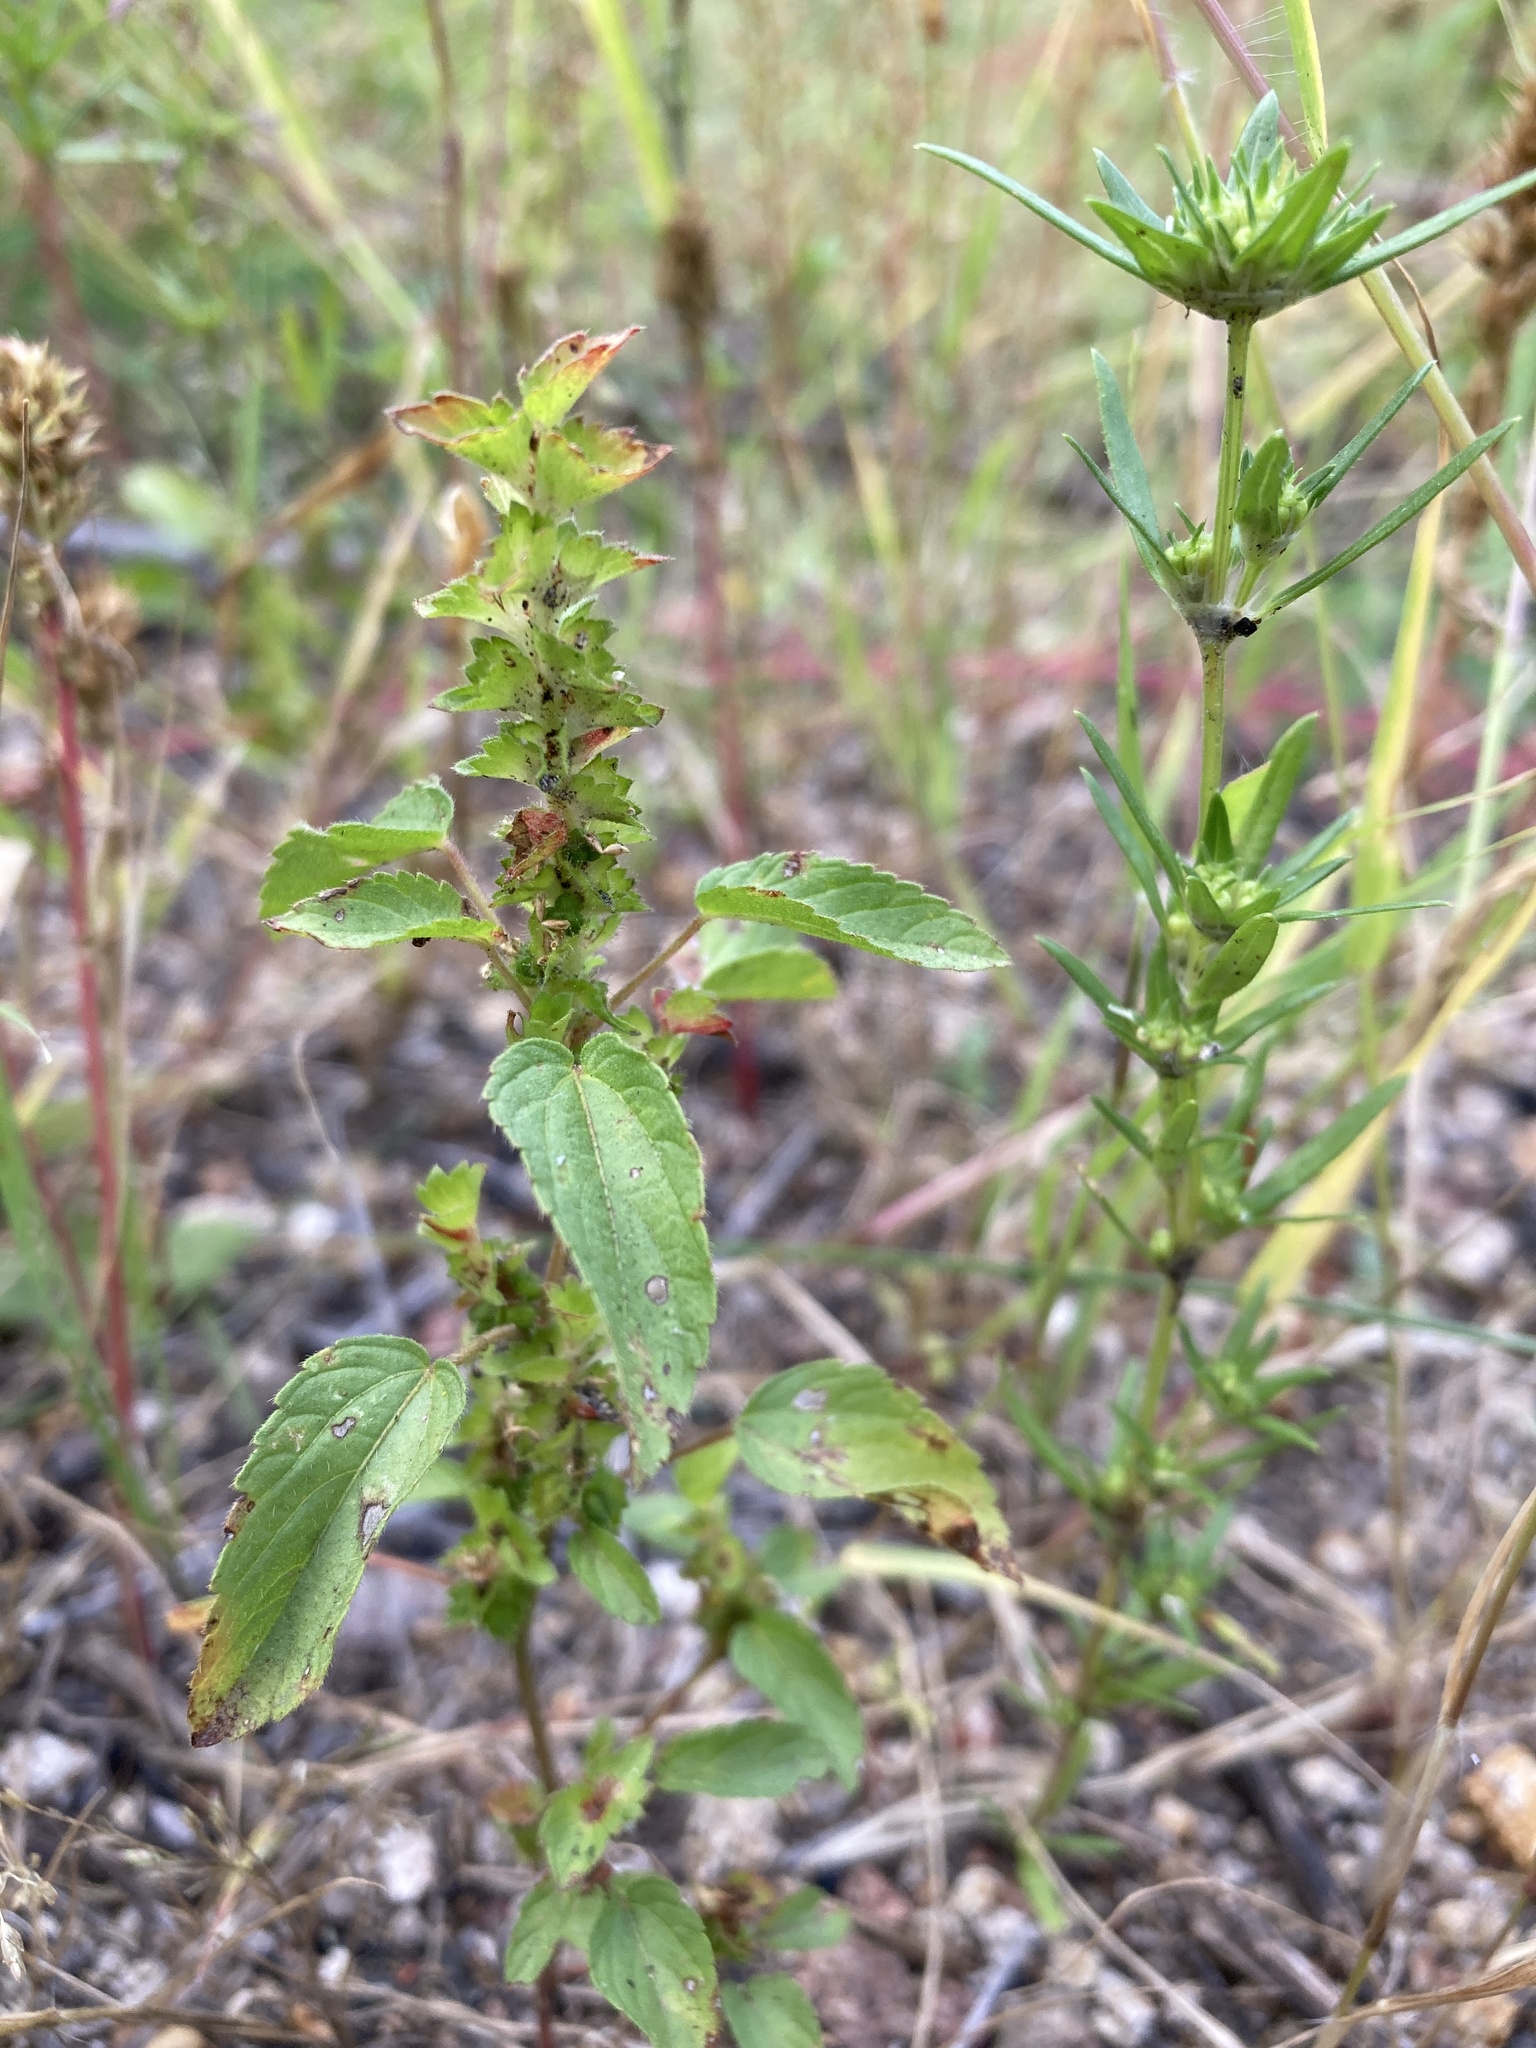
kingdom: Plantae
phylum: Tracheophyta
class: Magnoliopsida
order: Malpighiales
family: Euphorbiaceae
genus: Acalypha
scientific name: Acalypha neomexicana
